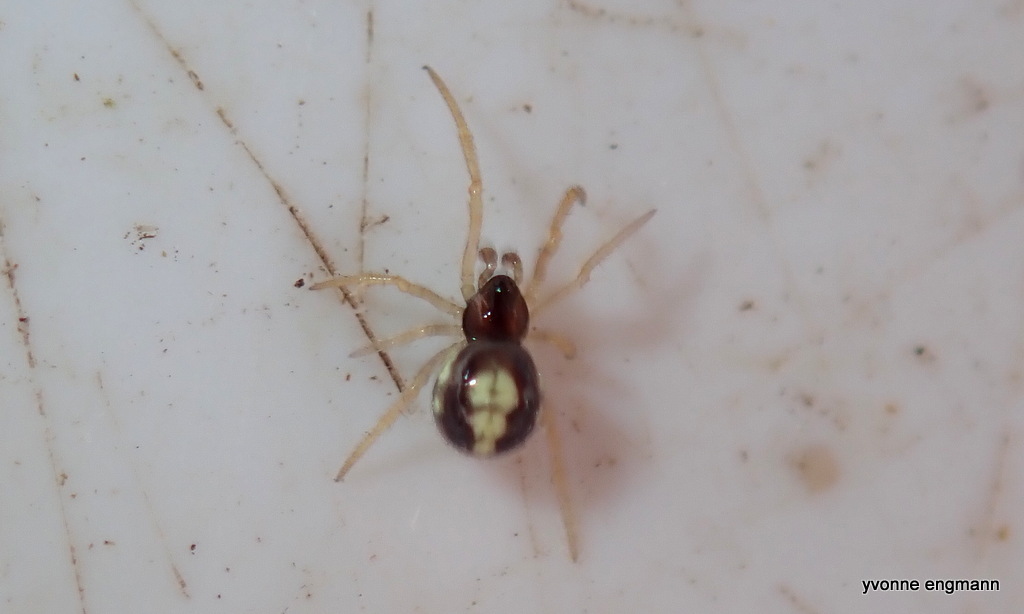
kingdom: Animalia
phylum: Arthropoda
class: Arachnida
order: Araneae
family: Theridiidae
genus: Neottiura
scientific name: Neottiura bimaculata
